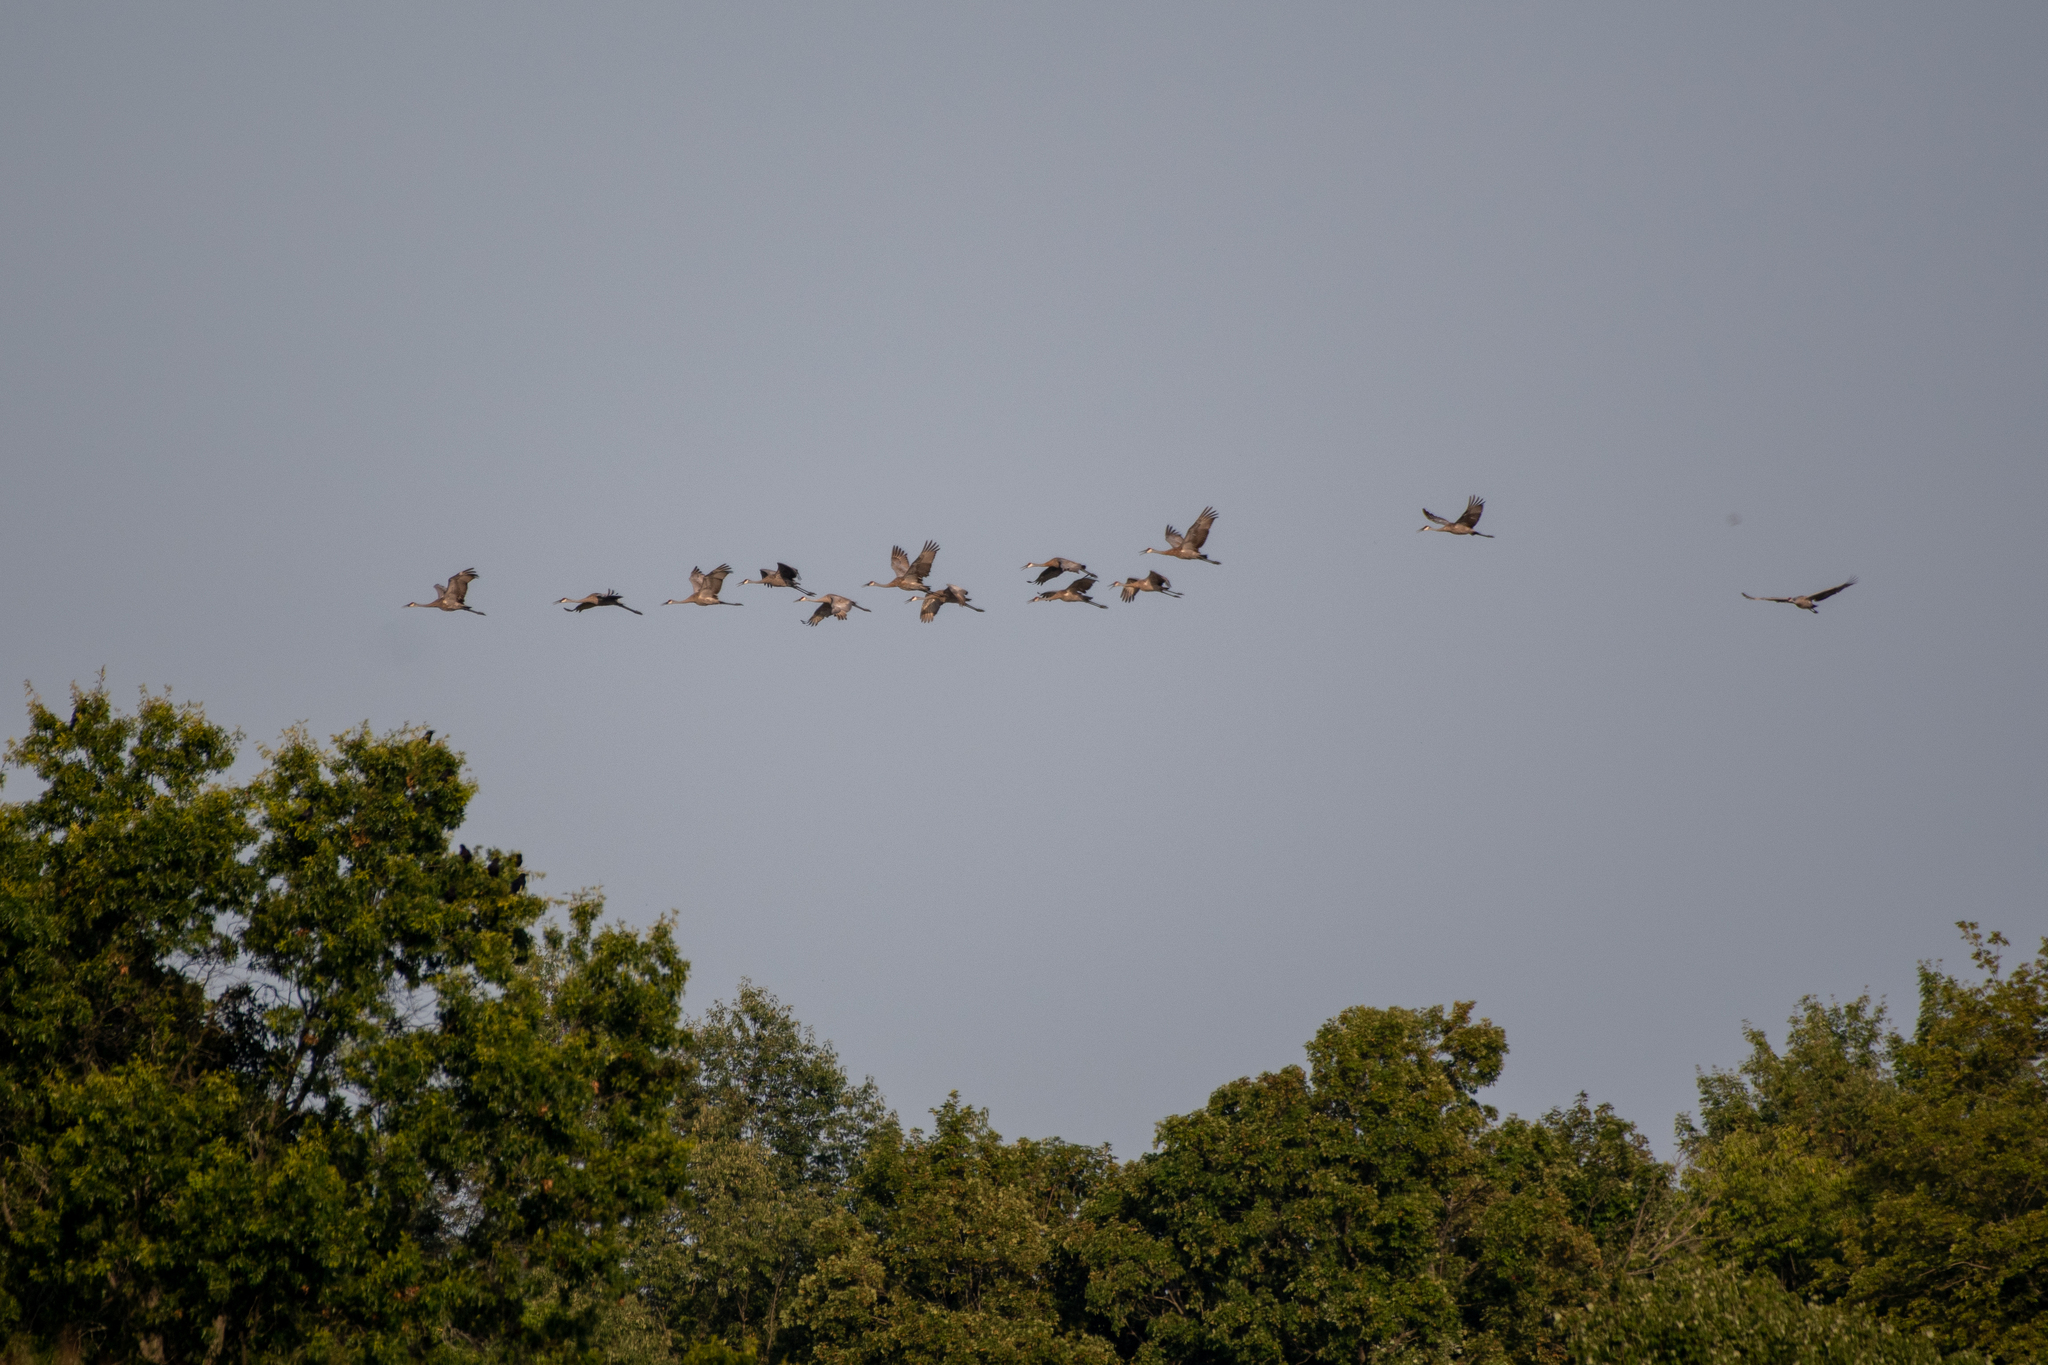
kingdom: Animalia
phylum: Chordata
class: Aves
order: Gruiformes
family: Gruidae
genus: Grus
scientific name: Grus canadensis
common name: Sandhill crane
